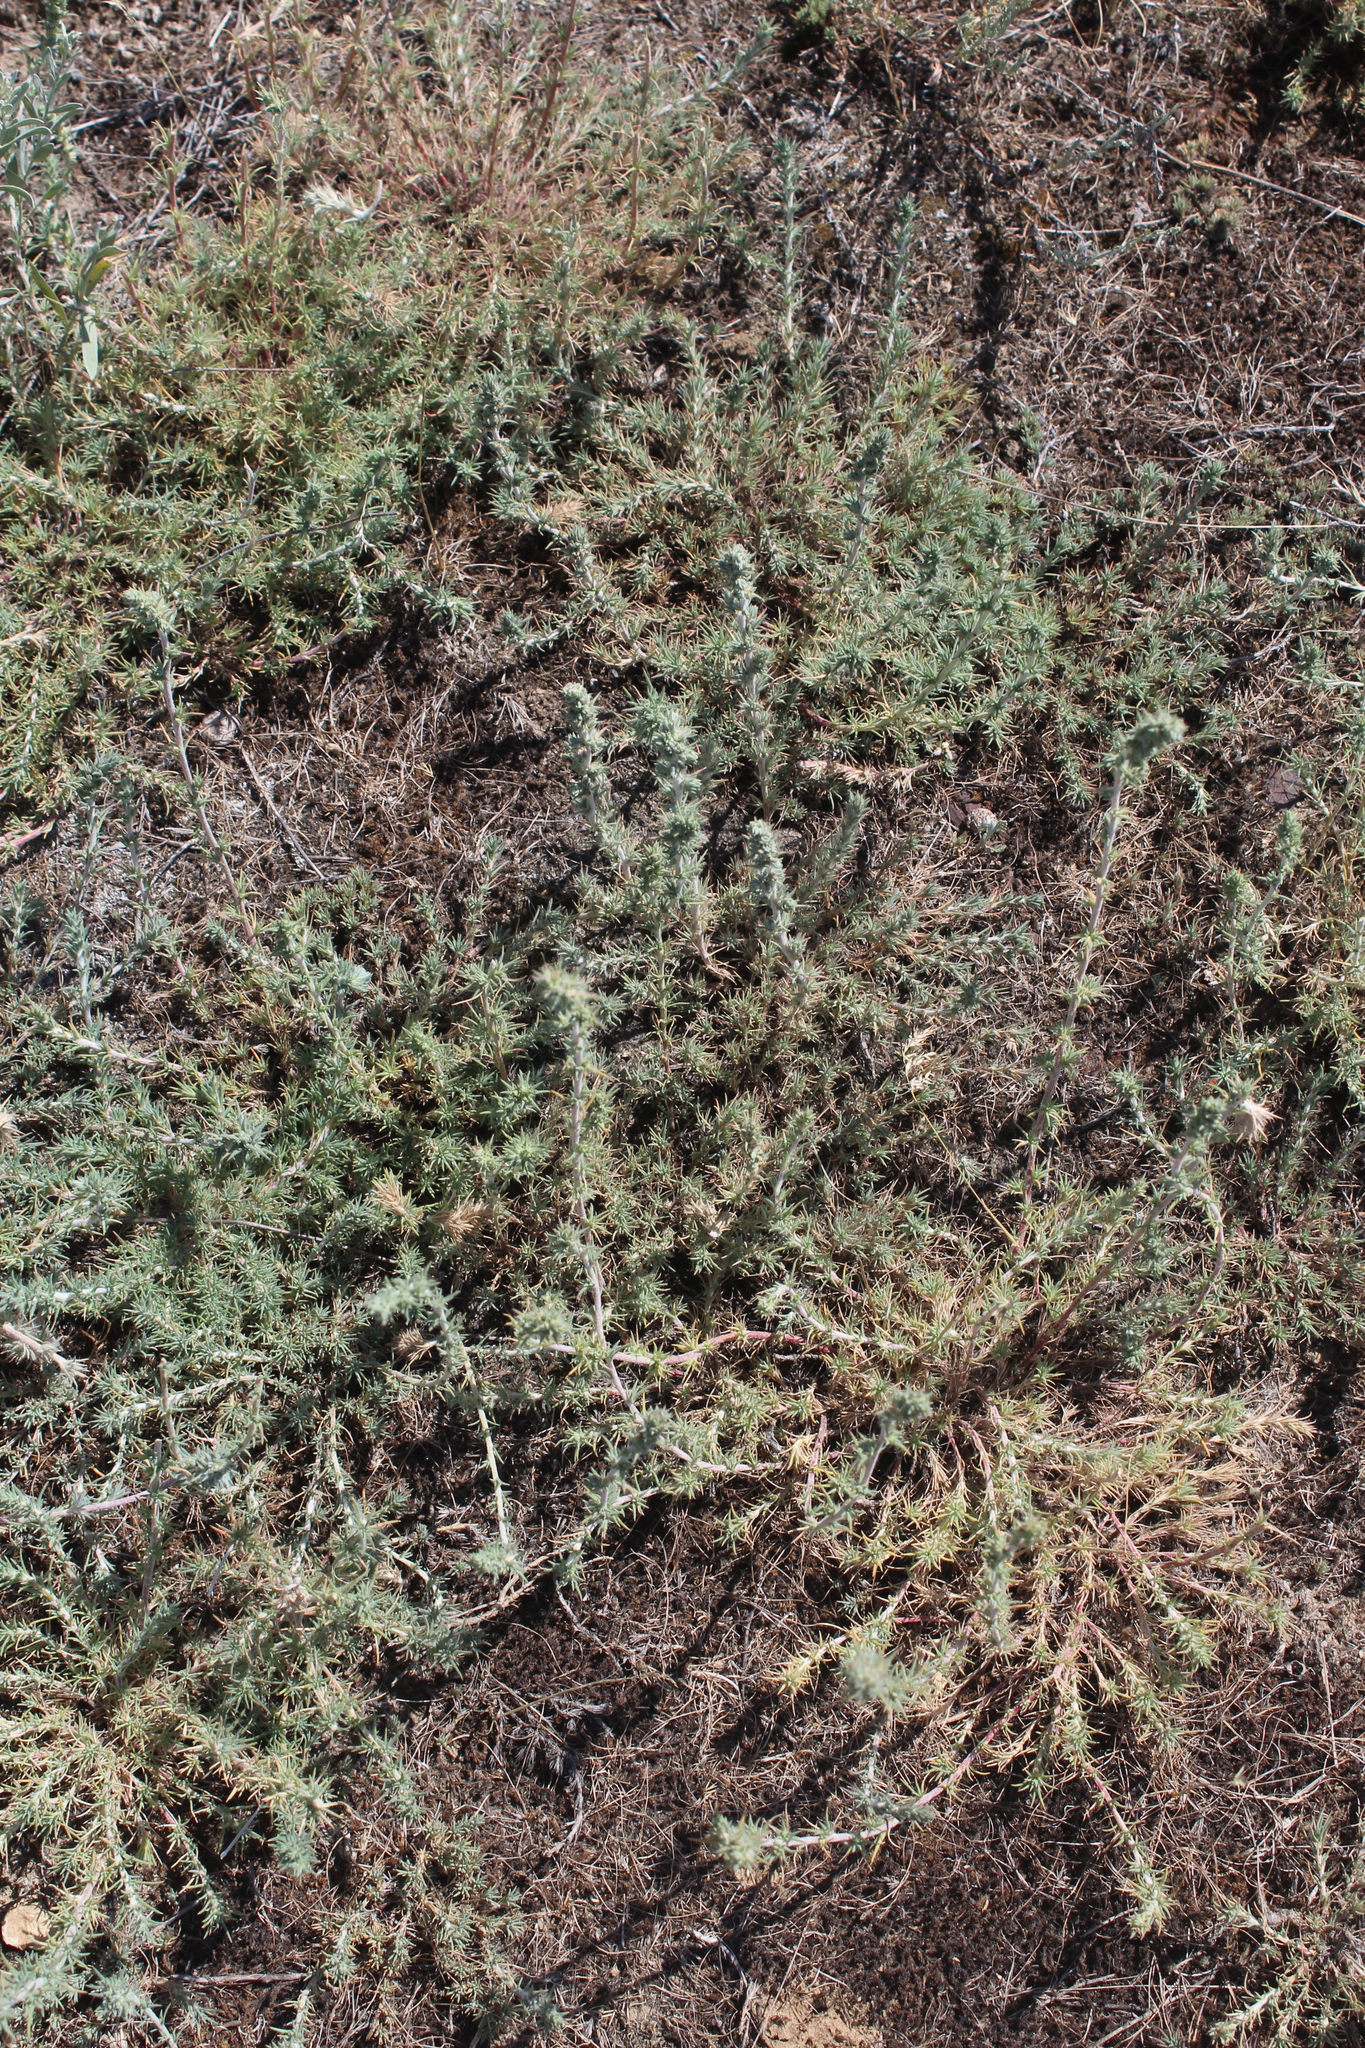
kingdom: Plantae
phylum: Tracheophyta
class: Magnoliopsida
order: Caryophyllales
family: Amaranthaceae
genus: Camphorosma
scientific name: Camphorosma monspeliaca
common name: Camphorfume
